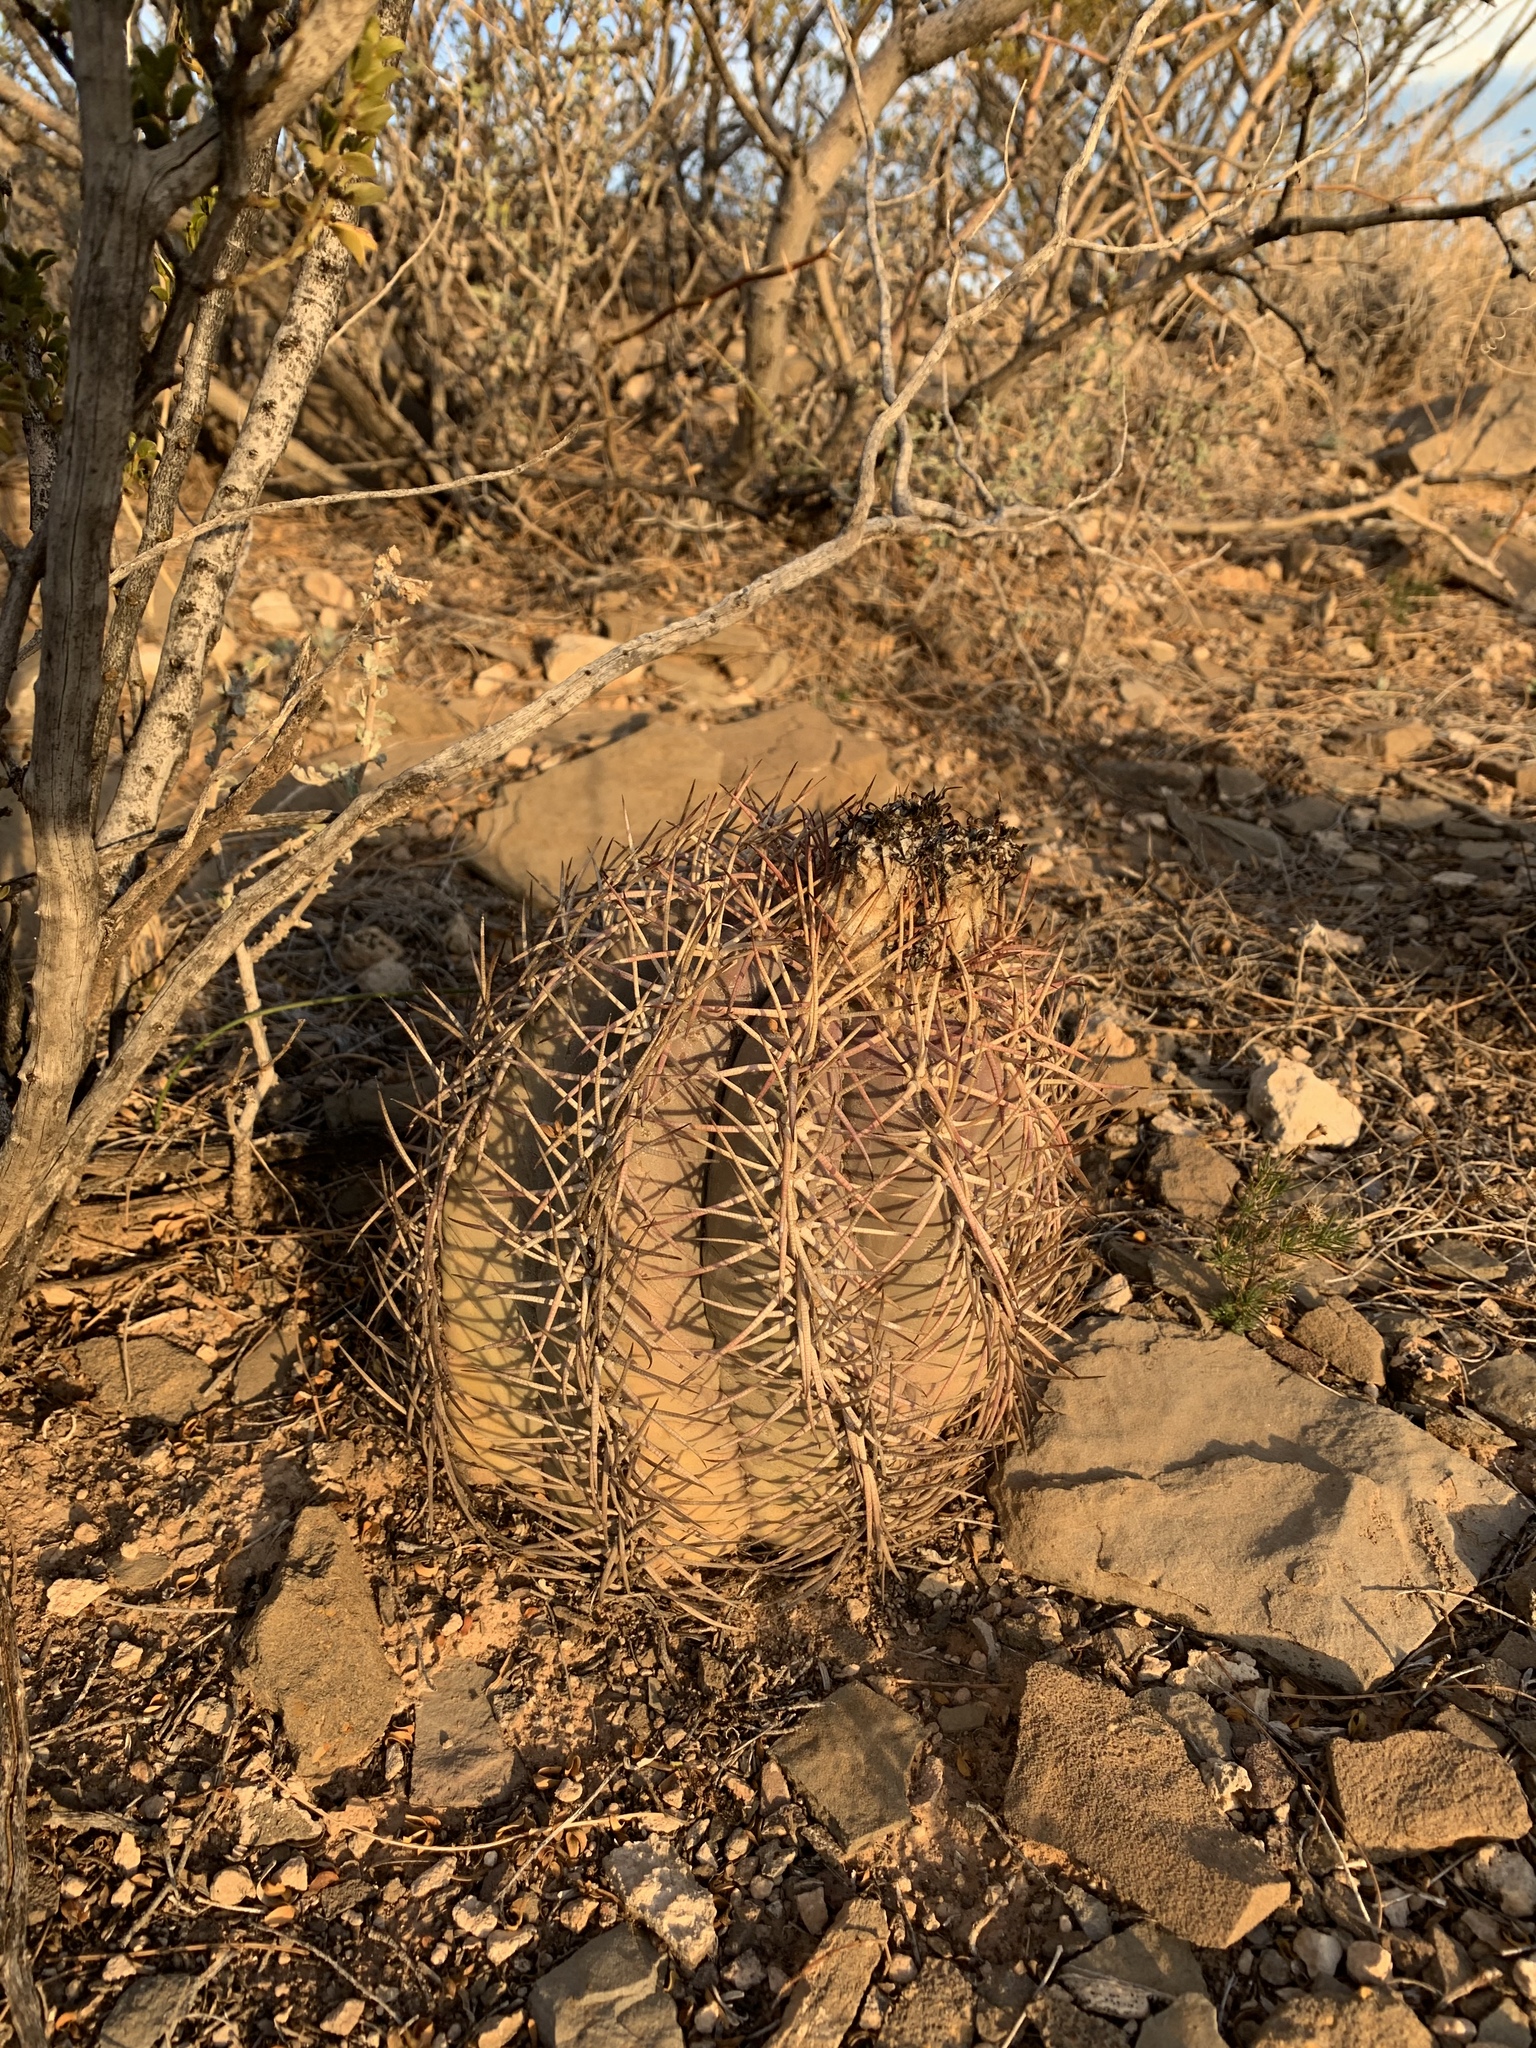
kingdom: Plantae
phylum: Tracheophyta
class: Magnoliopsida
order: Caryophyllales
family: Cactaceae
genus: Echinocactus
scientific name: Echinocactus horizonthalonius
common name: Devilshead
